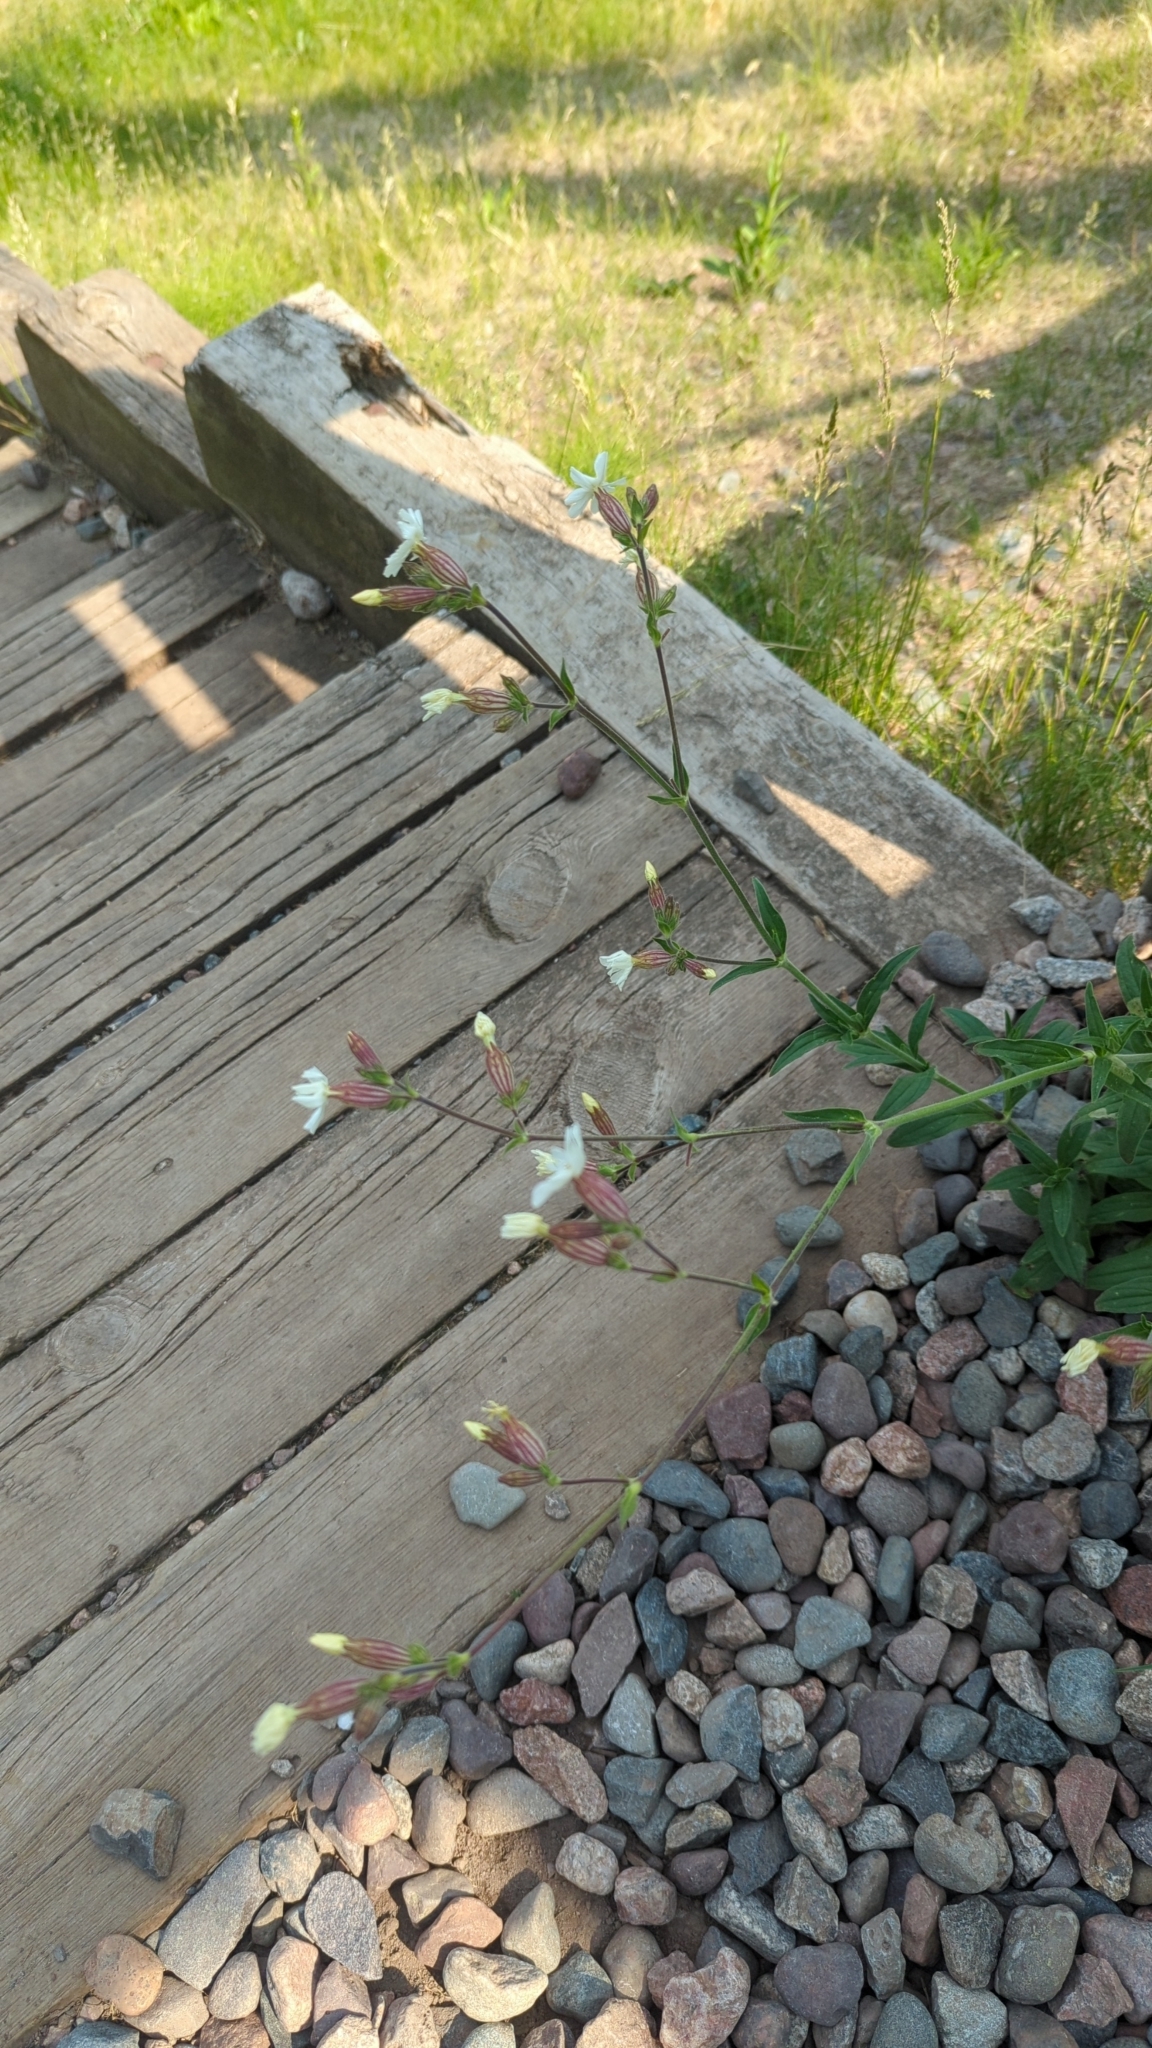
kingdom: Plantae
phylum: Tracheophyta
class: Magnoliopsida
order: Caryophyllales
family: Caryophyllaceae
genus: Silene
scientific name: Silene latifolia
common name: White campion
